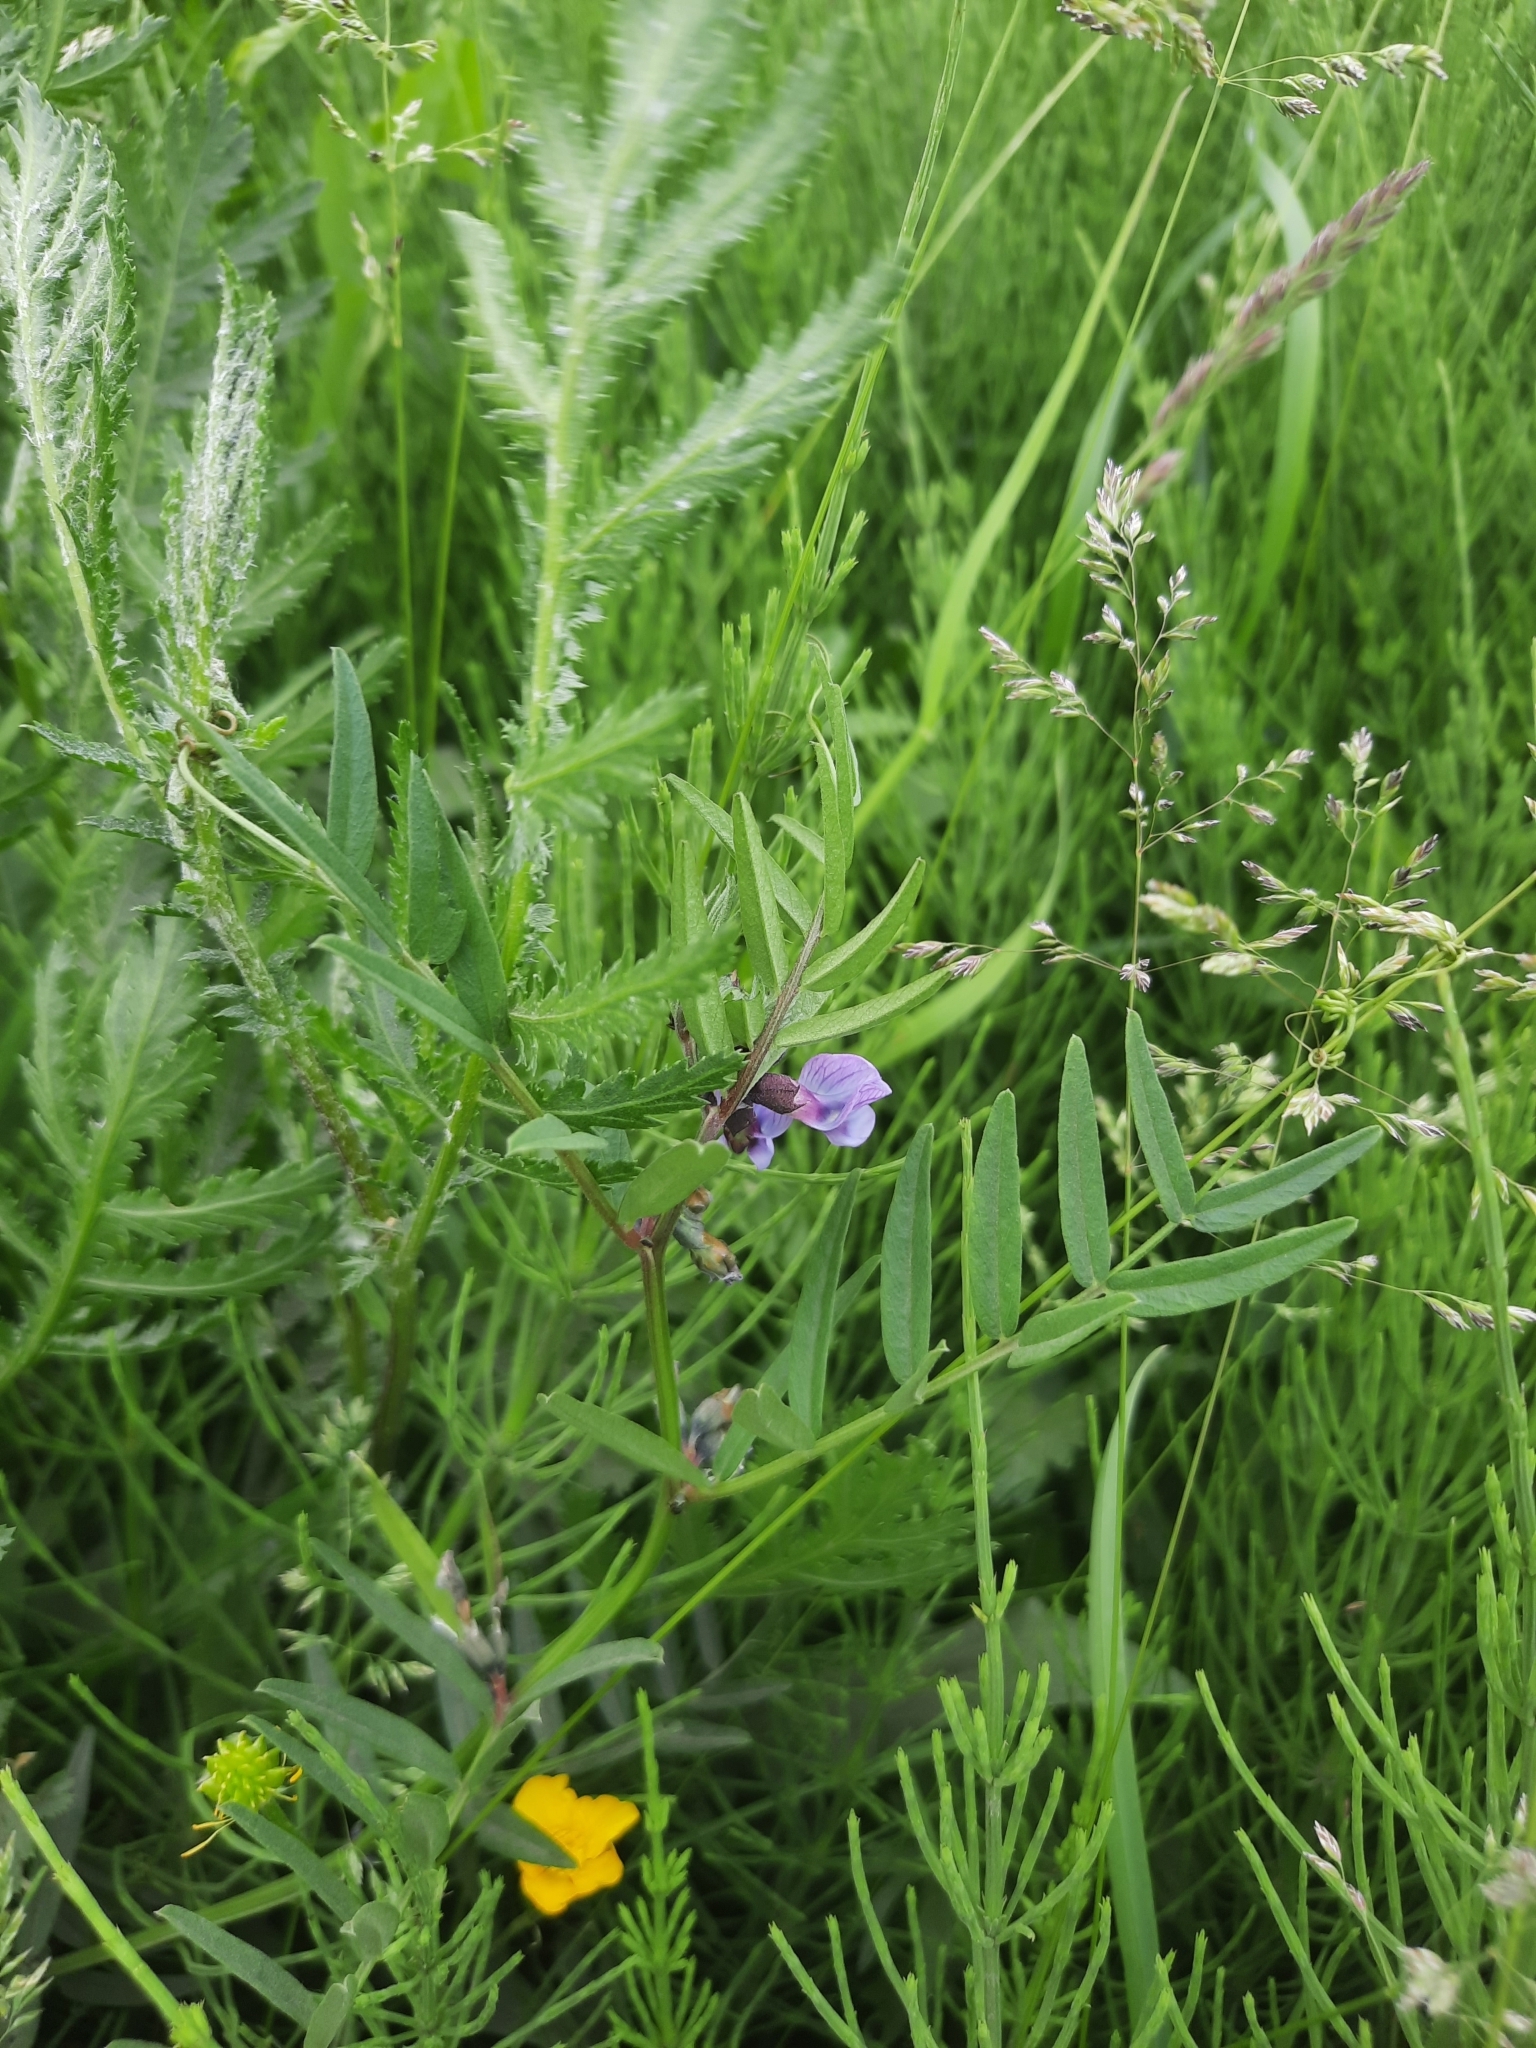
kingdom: Plantae
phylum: Tracheophyta
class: Magnoliopsida
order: Fabales
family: Fabaceae
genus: Vicia
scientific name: Vicia sepium
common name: Bush vetch
